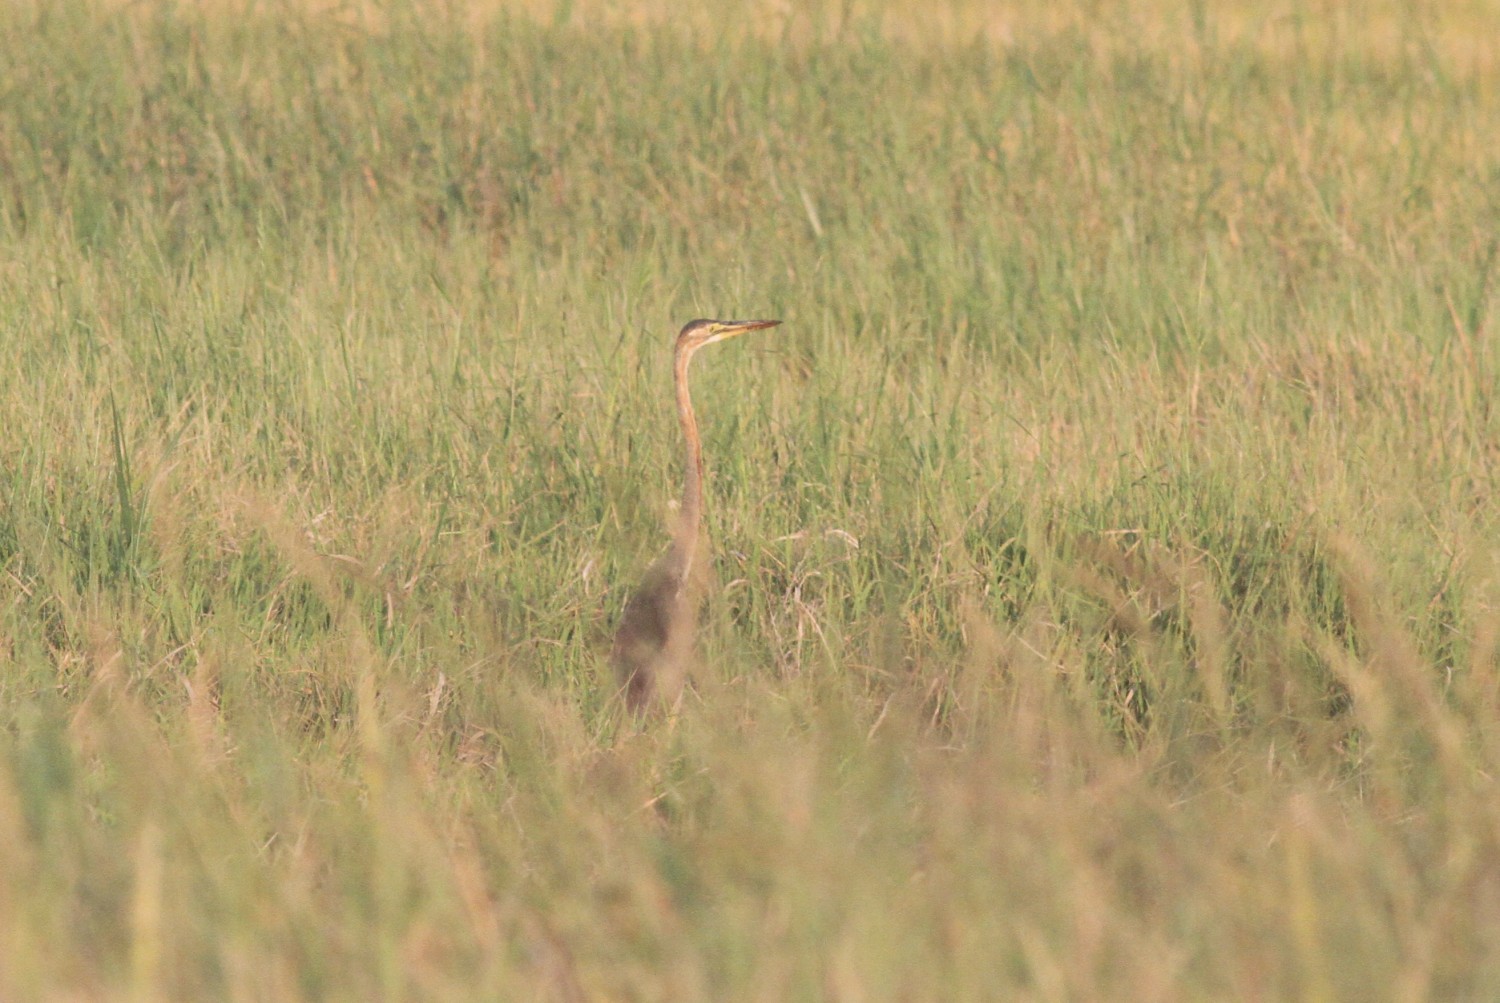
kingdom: Animalia
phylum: Chordata
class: Aves
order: Pelecaniformes
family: Ardeidae
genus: Ardea
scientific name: Ardea purpurea
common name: Purple heron
